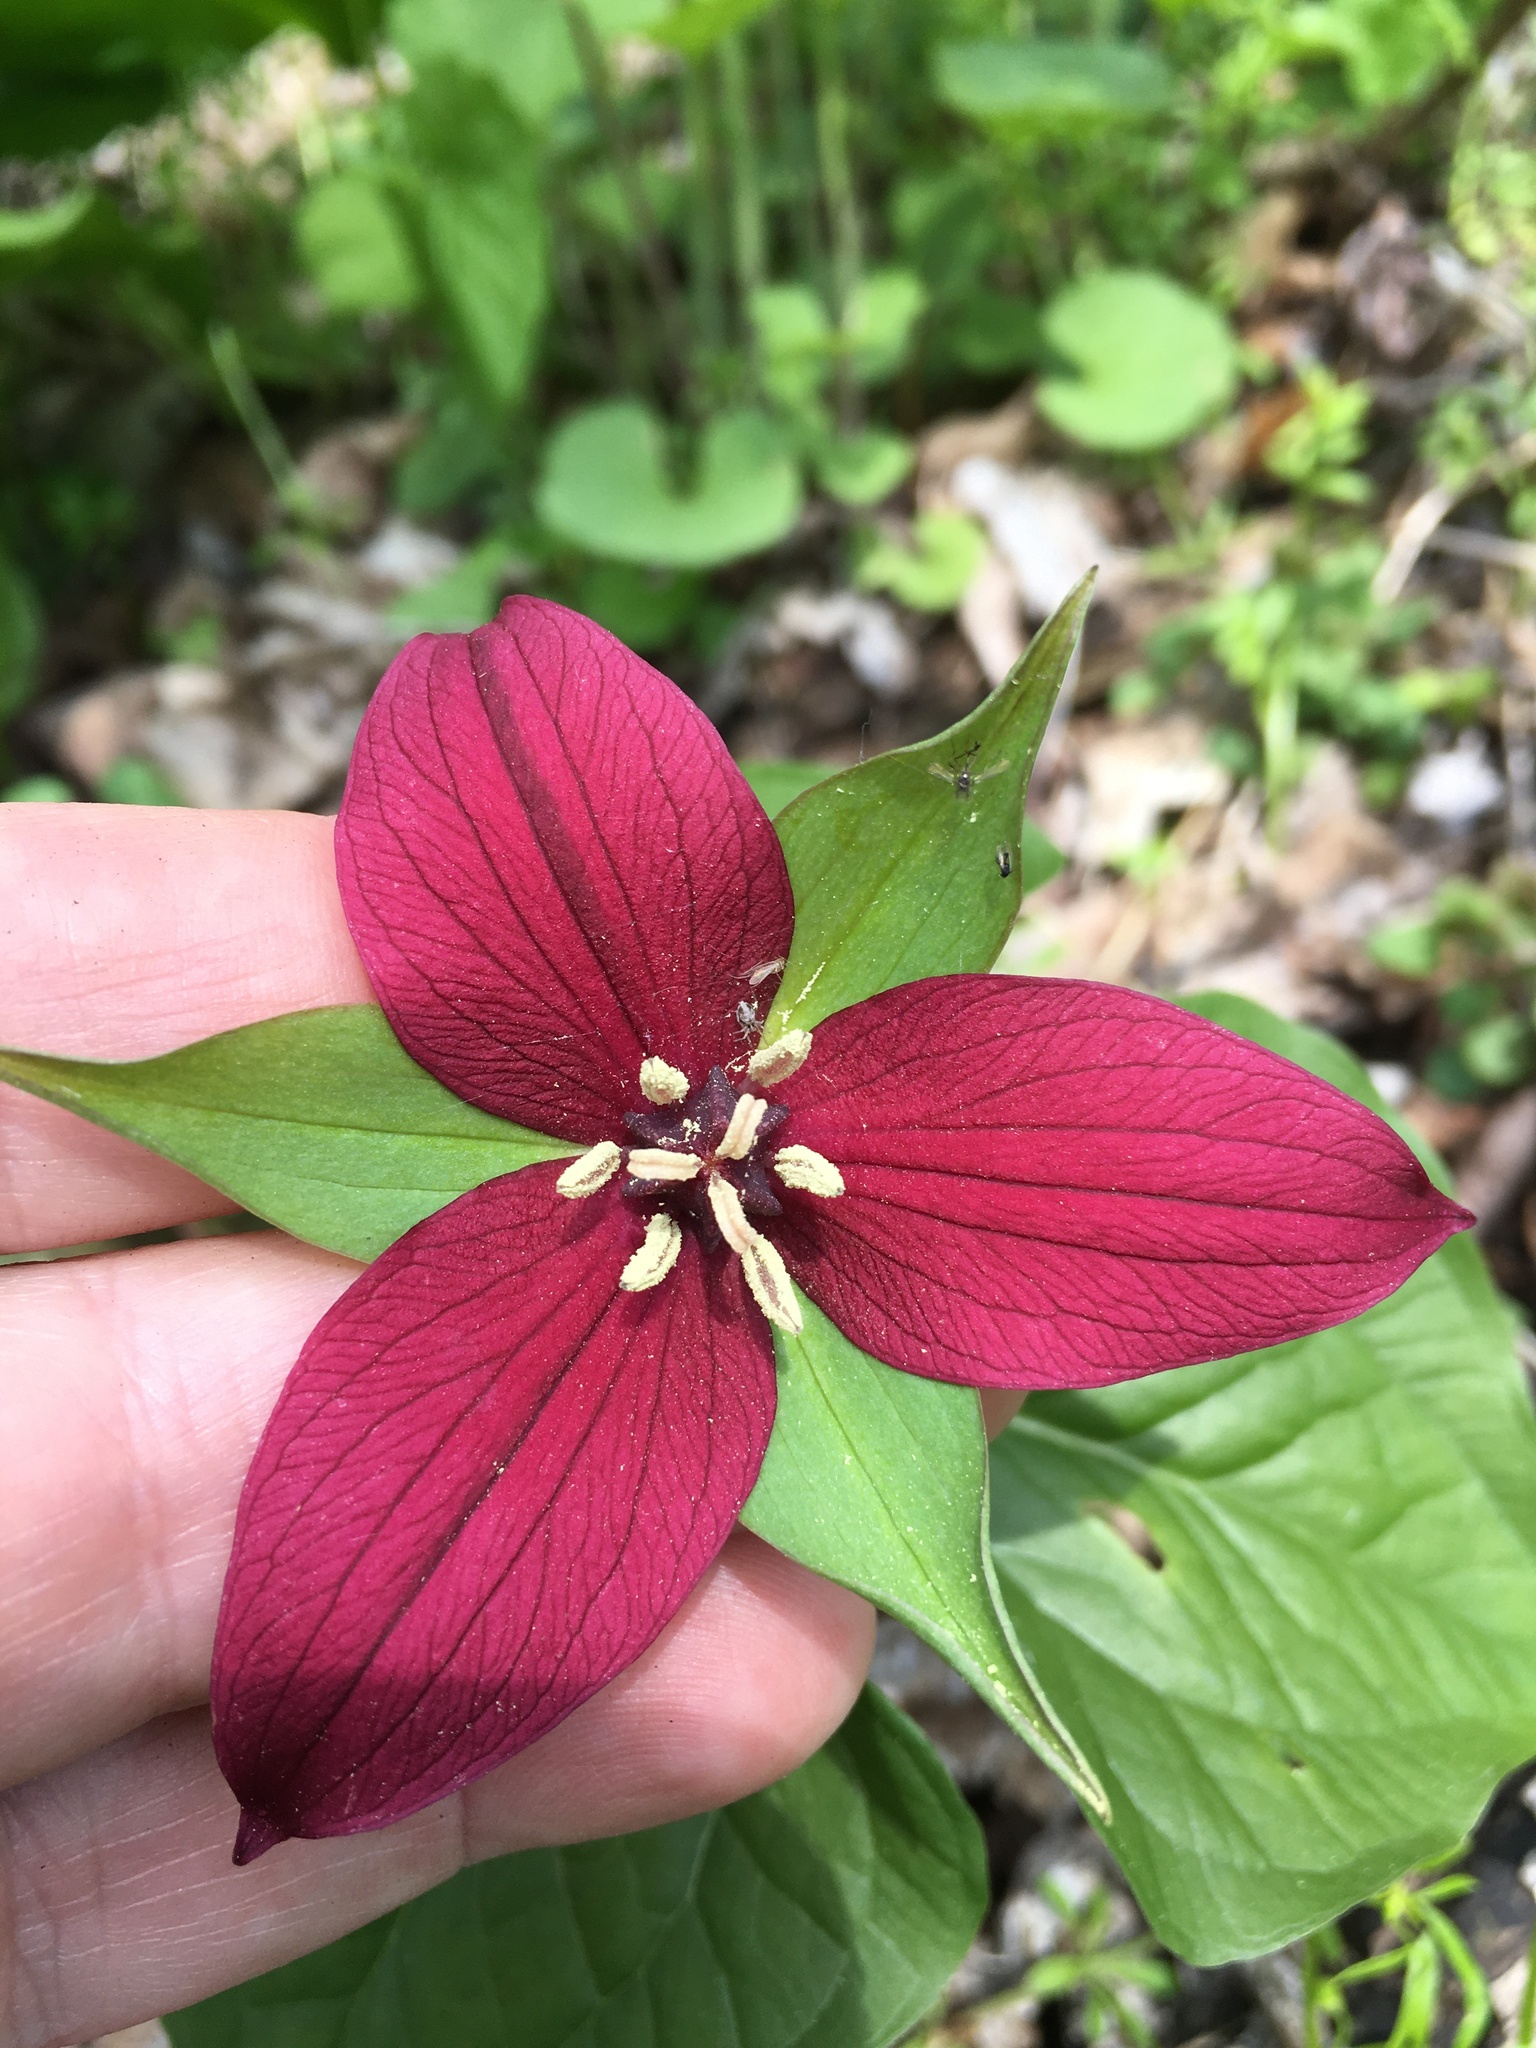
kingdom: Plantae
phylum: Tracheophyta
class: Liliopsida
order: Liliales
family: Melanthiaceae
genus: Trillium
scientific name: Trillium erectum
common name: Purple trillium
